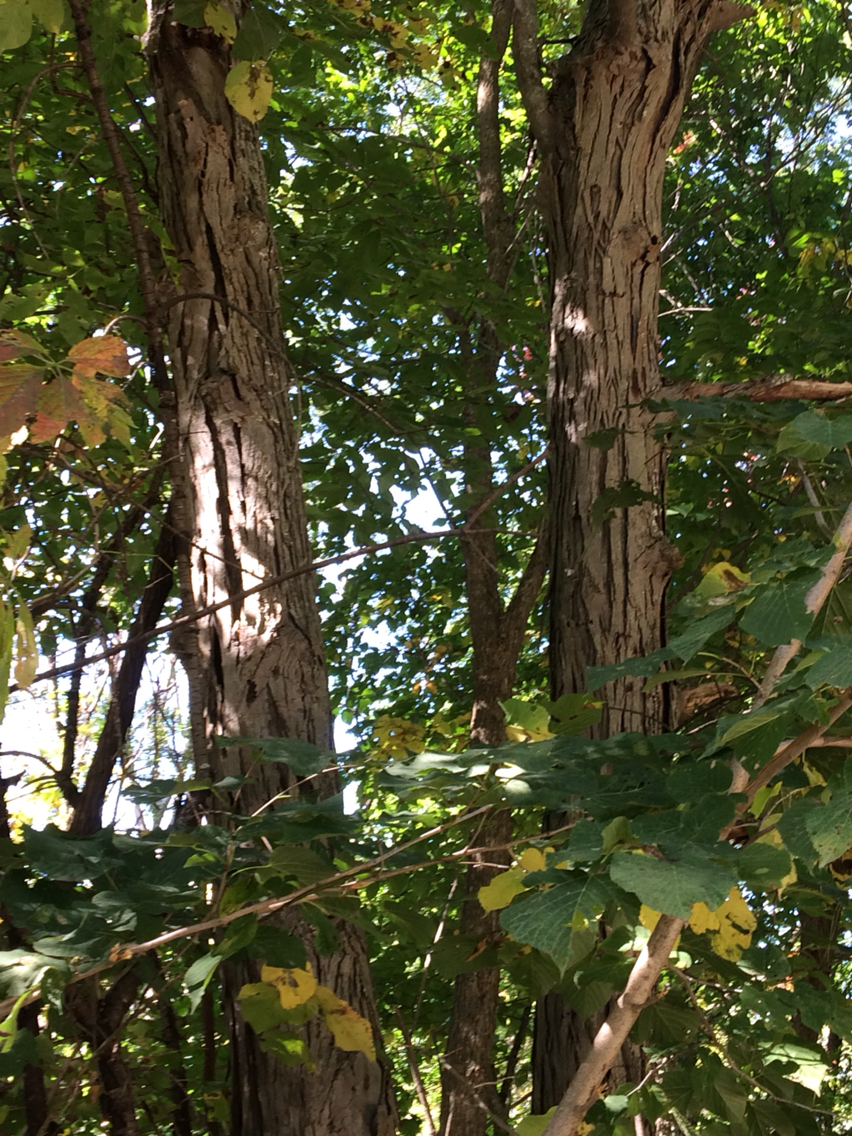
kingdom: Plantae
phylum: Tracheophyta
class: Magnoliopsida
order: Fagales
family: Juglandaceae
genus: Carya
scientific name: Carya ovata
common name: Shagbark hickory
